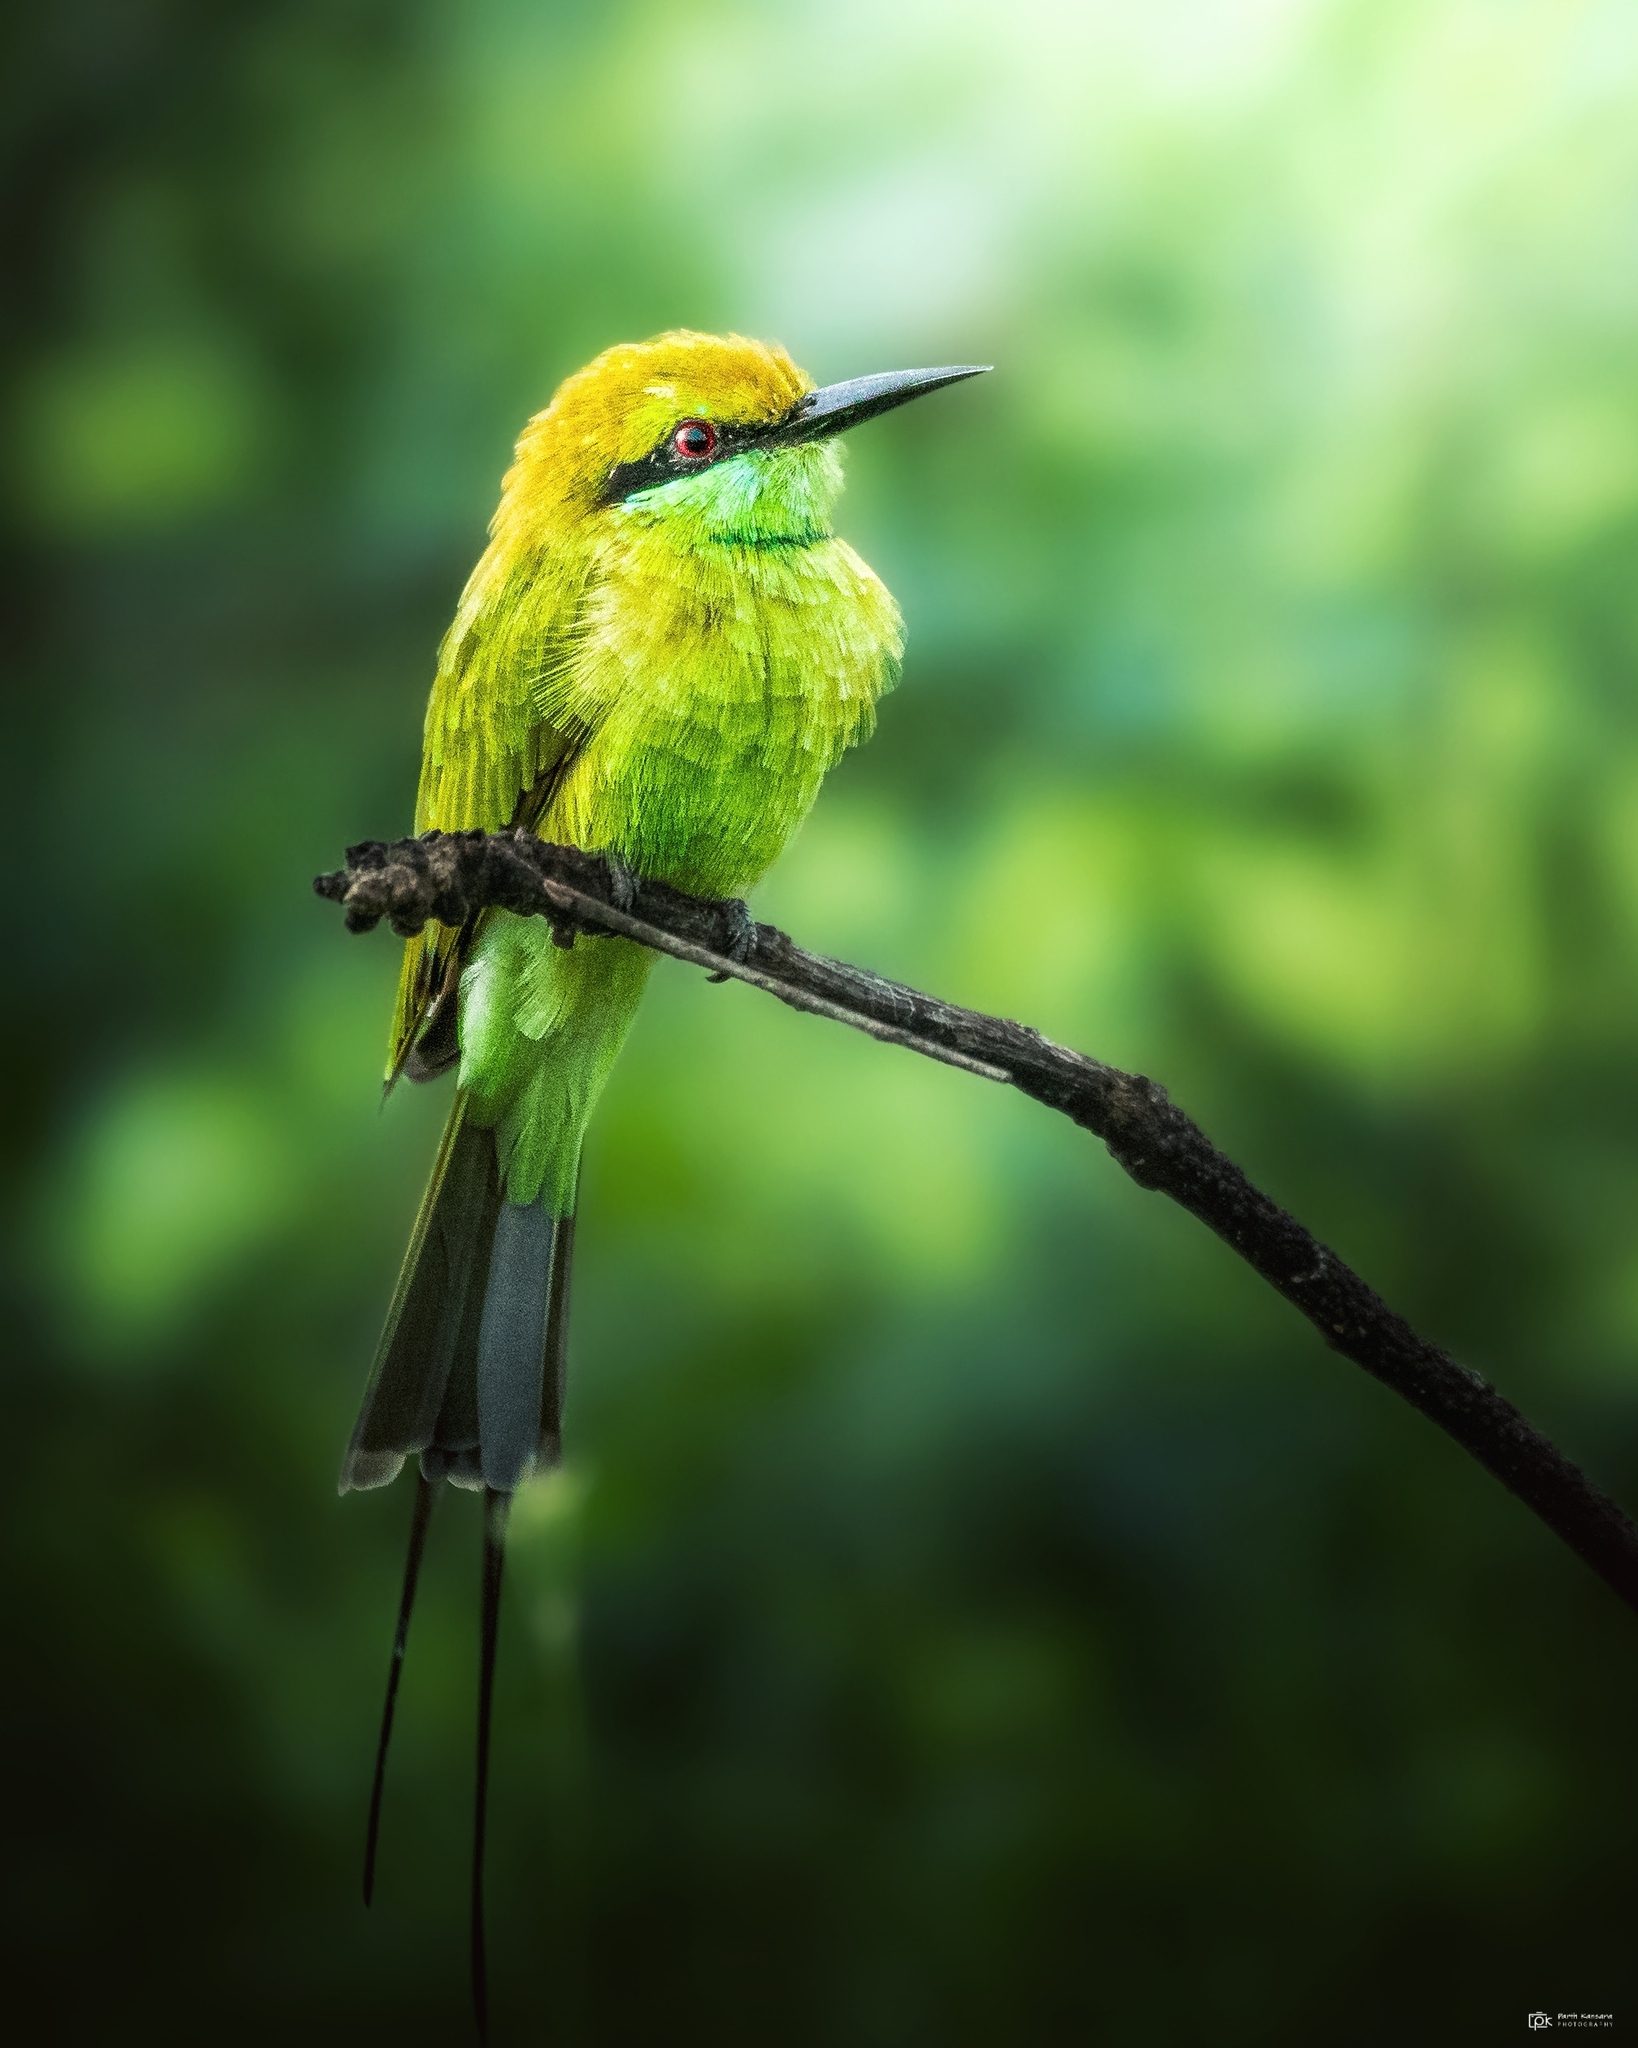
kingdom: Animalia
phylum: Chordata
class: Aves
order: Coraciiformes
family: Meropidae
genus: Merops
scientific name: Merops orientalis
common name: Green bee-eater
